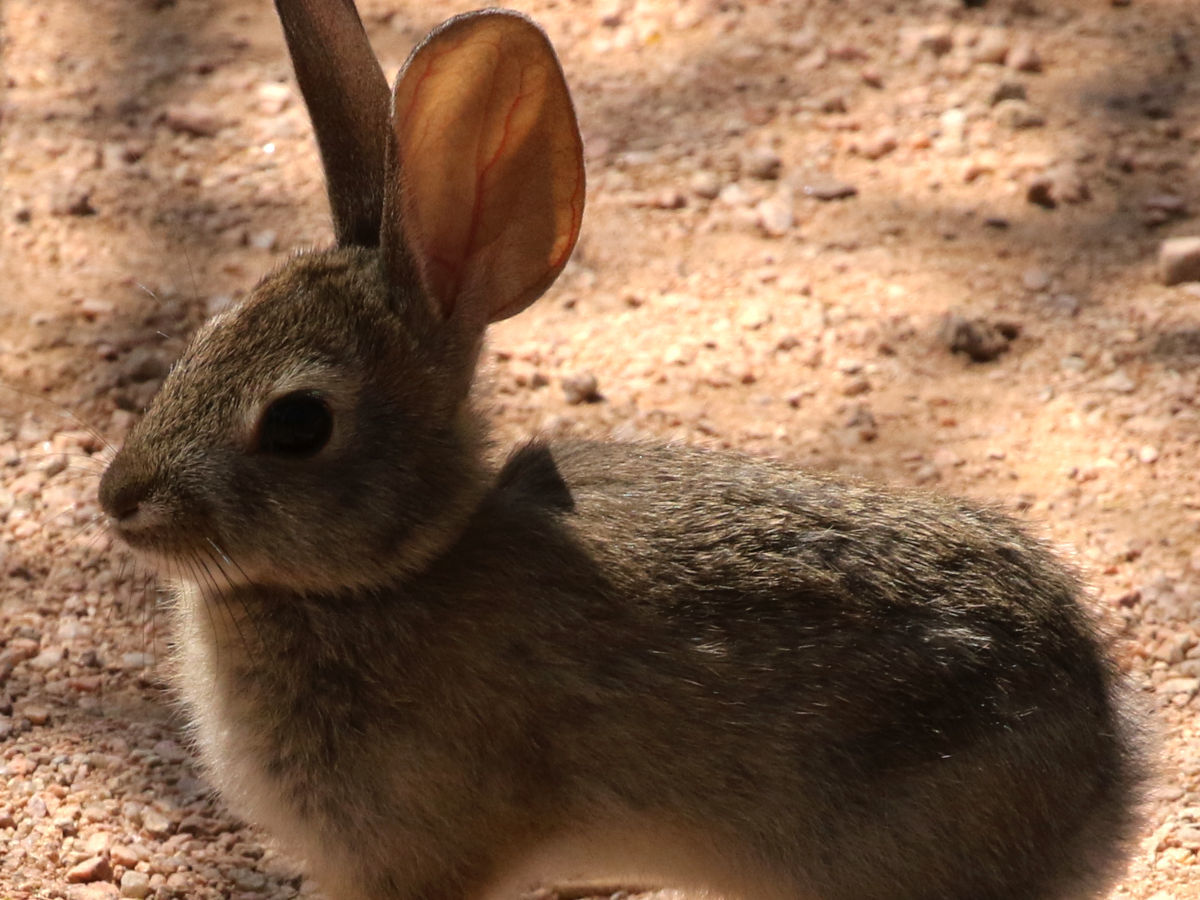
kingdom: Animalia
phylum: Chordata
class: Mammalia
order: Lagomorpha
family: Leporidae
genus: Sylvilagus
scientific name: Sylvilagus audubonii
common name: Desert cottontail
